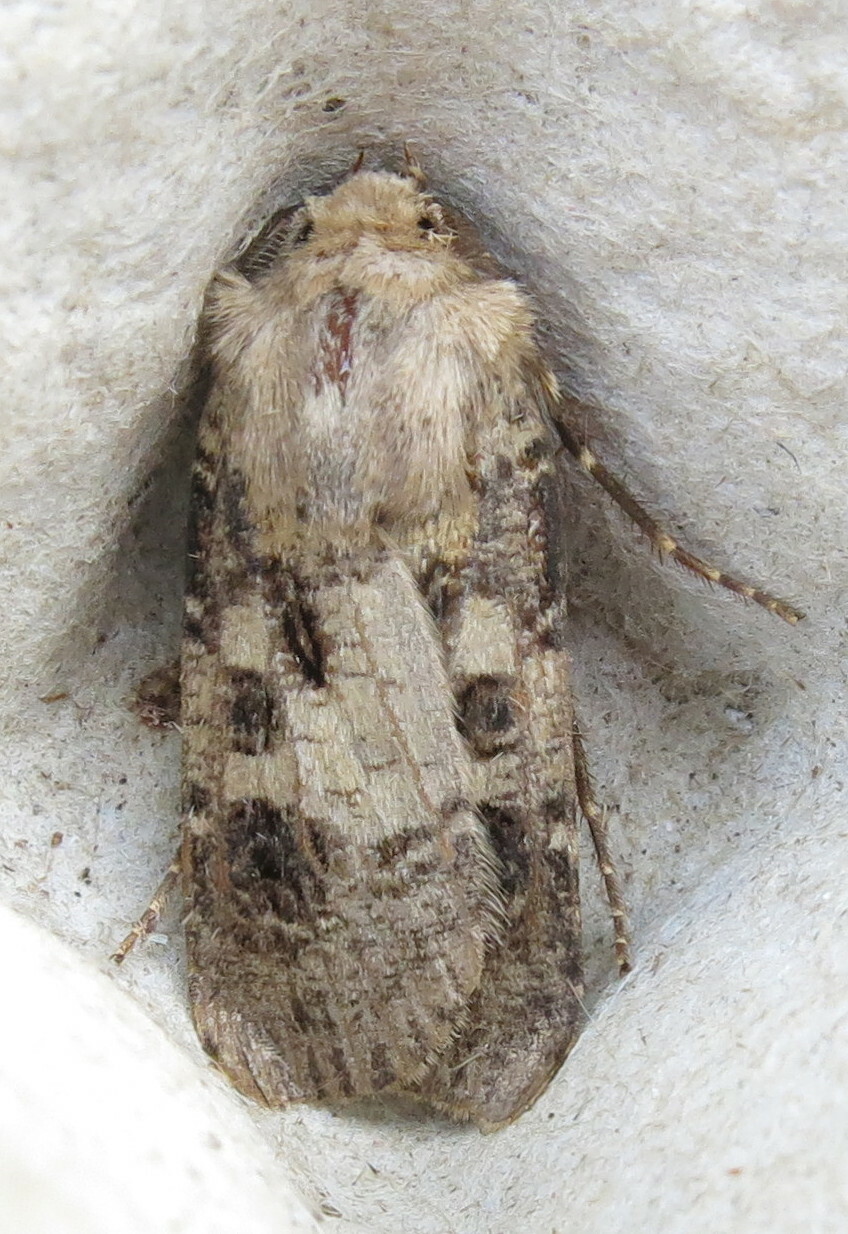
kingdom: Animalia
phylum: Arthropoda
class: Insecta
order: Lepidoptera
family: Noctuidae
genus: Agrotis
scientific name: Agrotis clavis
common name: Heart and club
